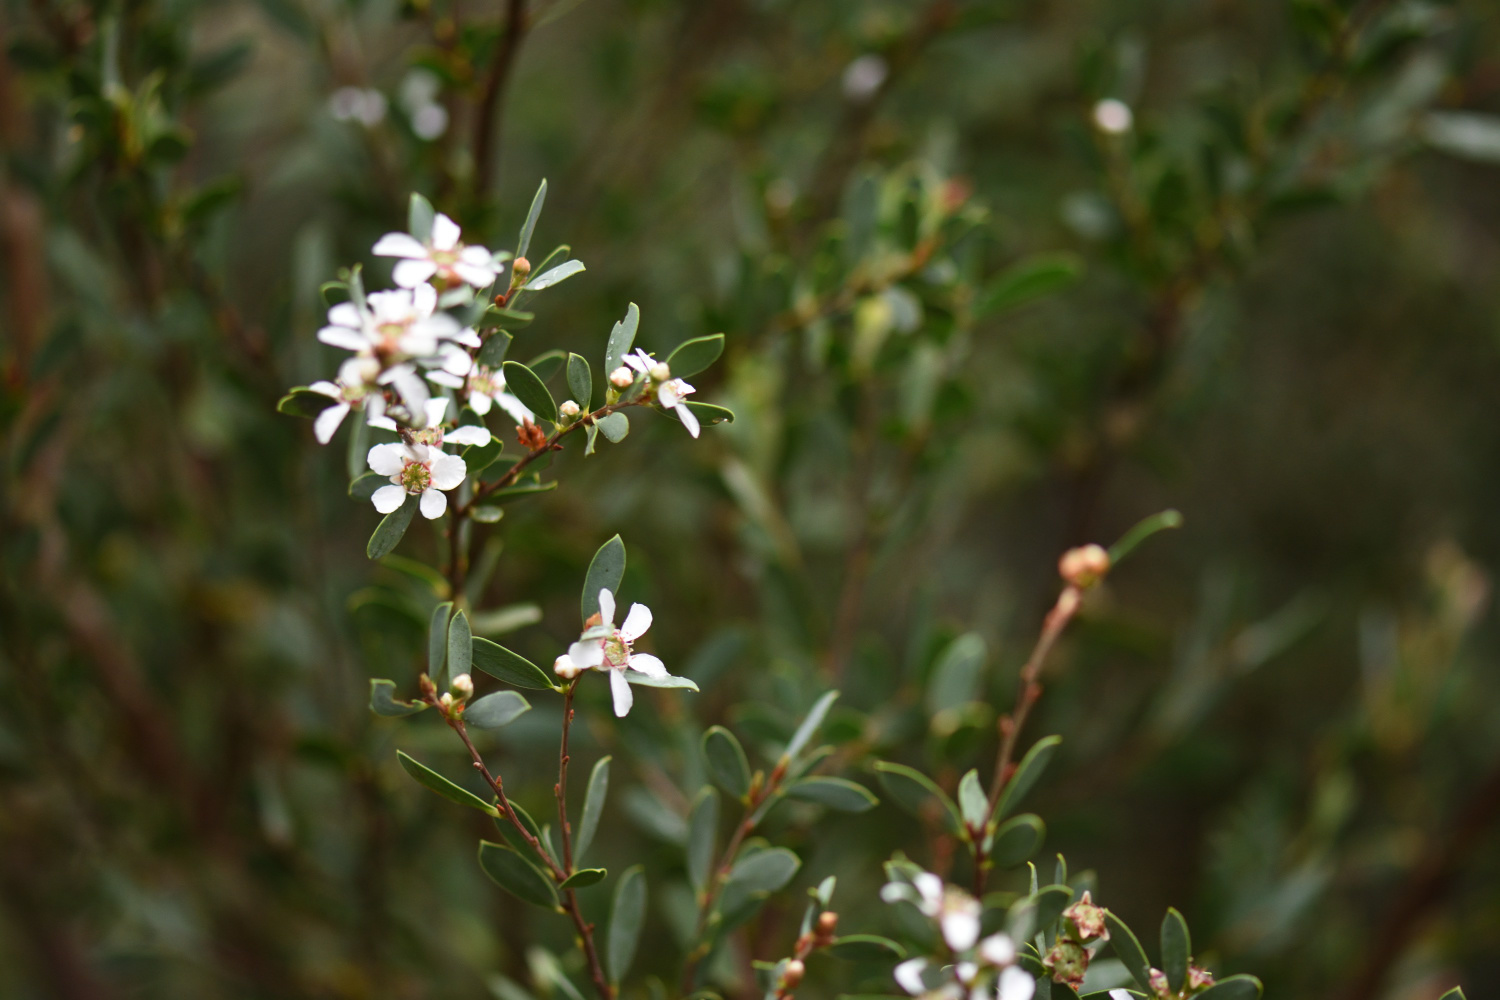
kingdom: Plantae
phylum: Tracheophyta
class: Magnoliopsida
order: Myrtales
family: Myrtaceae
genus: Leptospermum
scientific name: Leptospermum laevigatum
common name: Australian teatree
